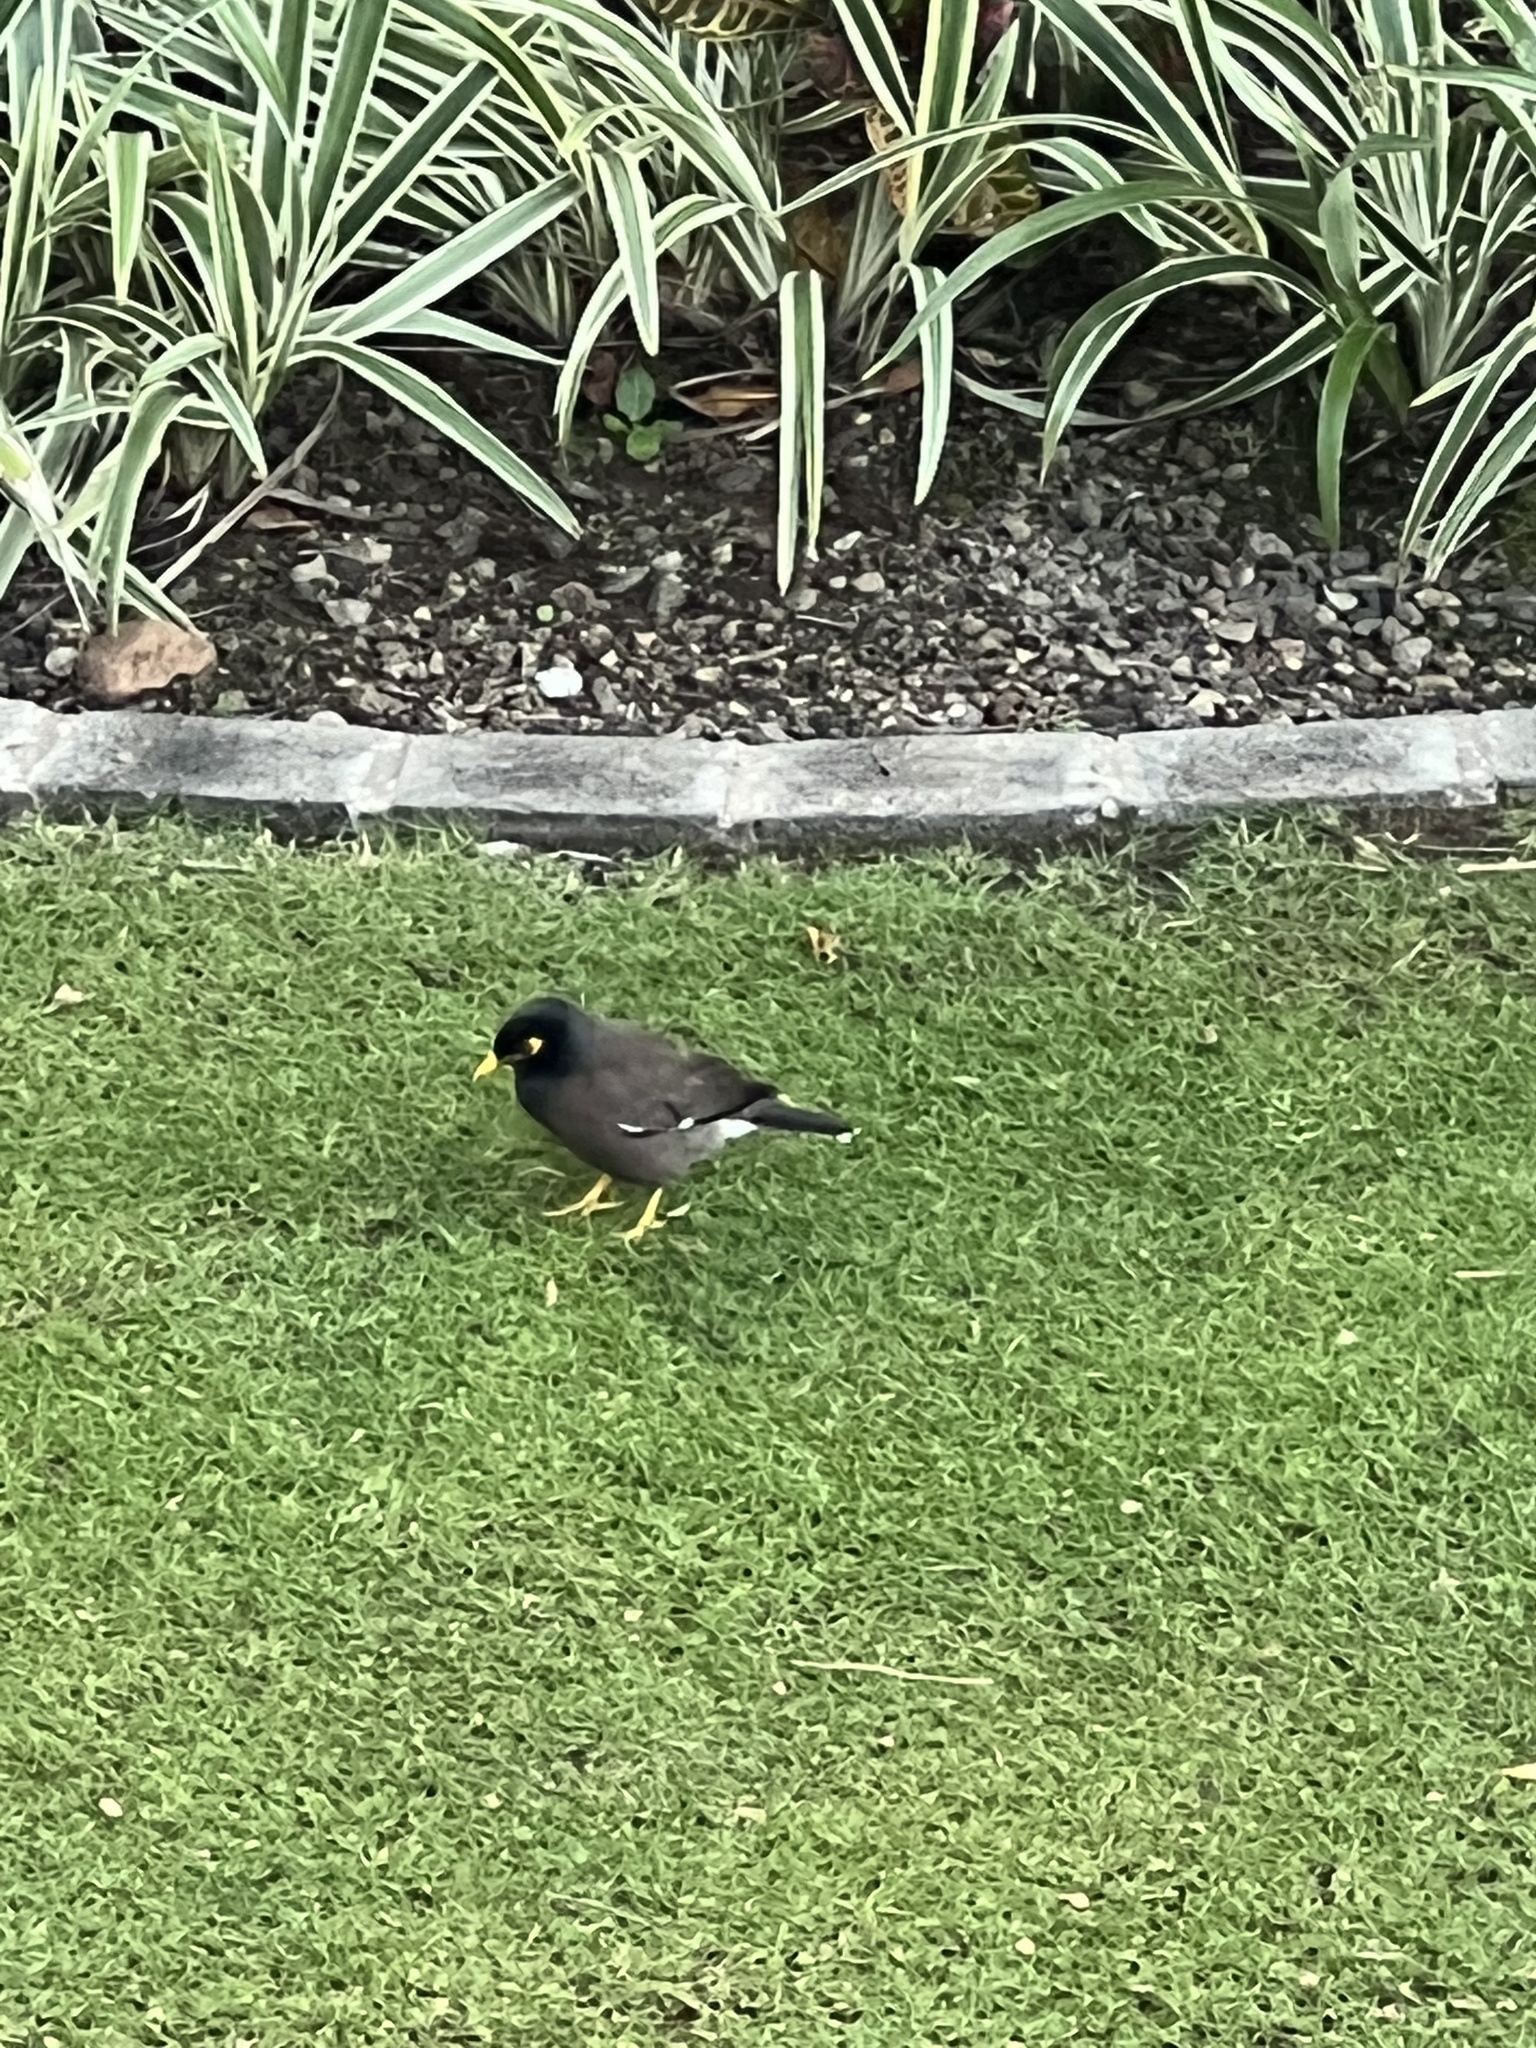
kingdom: Animalia
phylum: Chordata
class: Aves
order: Passeriformes
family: Sturnidae
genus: Acridotheres
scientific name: Acridotheres tristis
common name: Common myna
